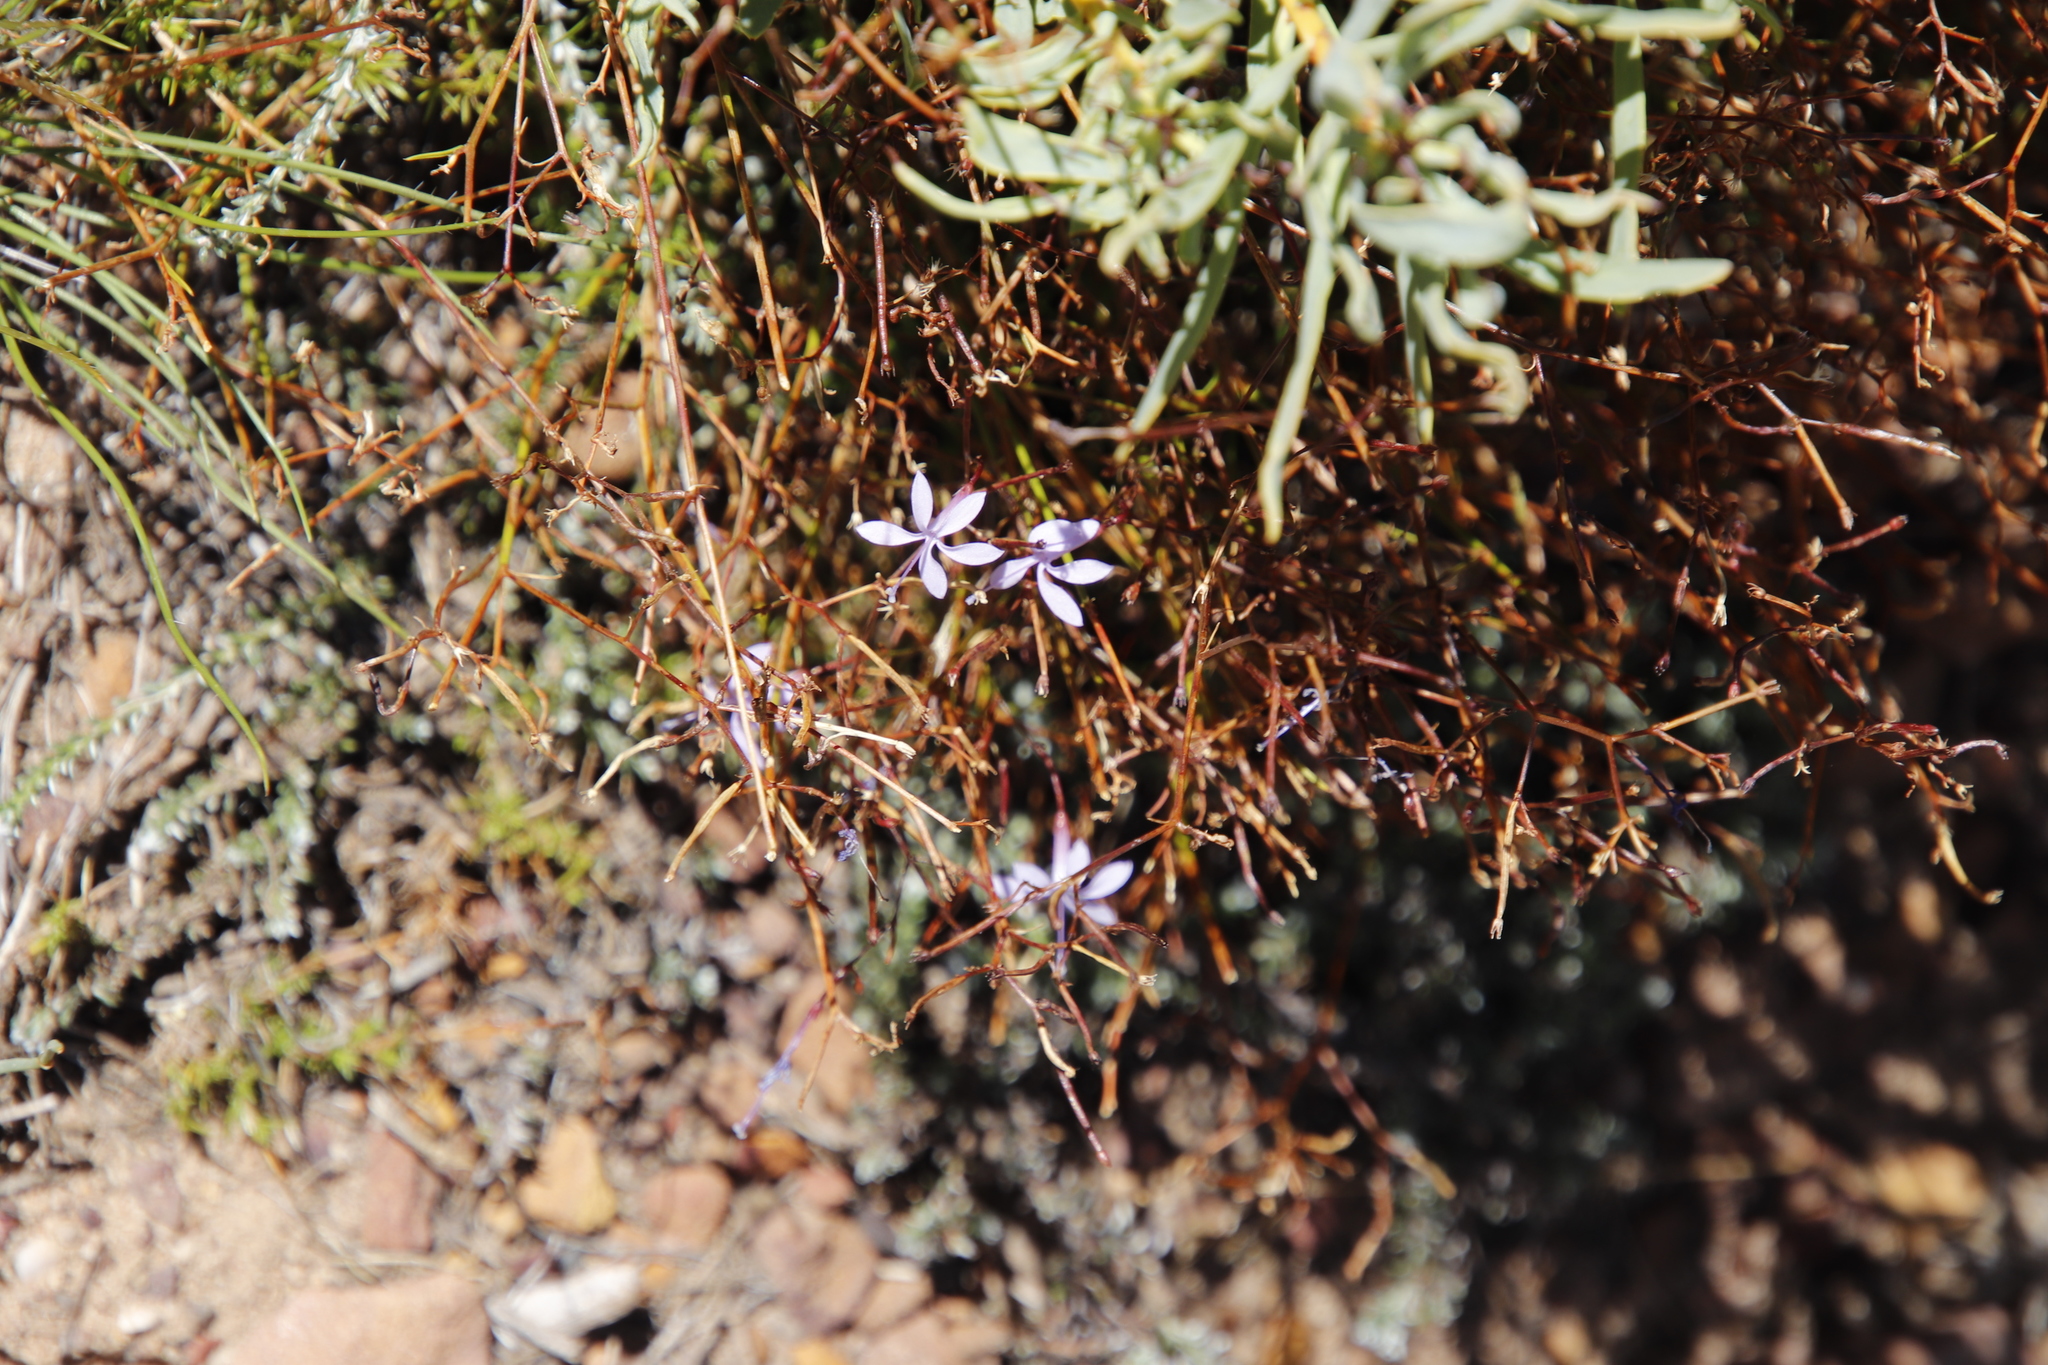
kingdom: Plantae
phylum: Tracheophyta
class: Magnoliopsida
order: Asterales
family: Campanulaceae
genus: Prismatocarpus
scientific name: Prismatocarpus diffusus
